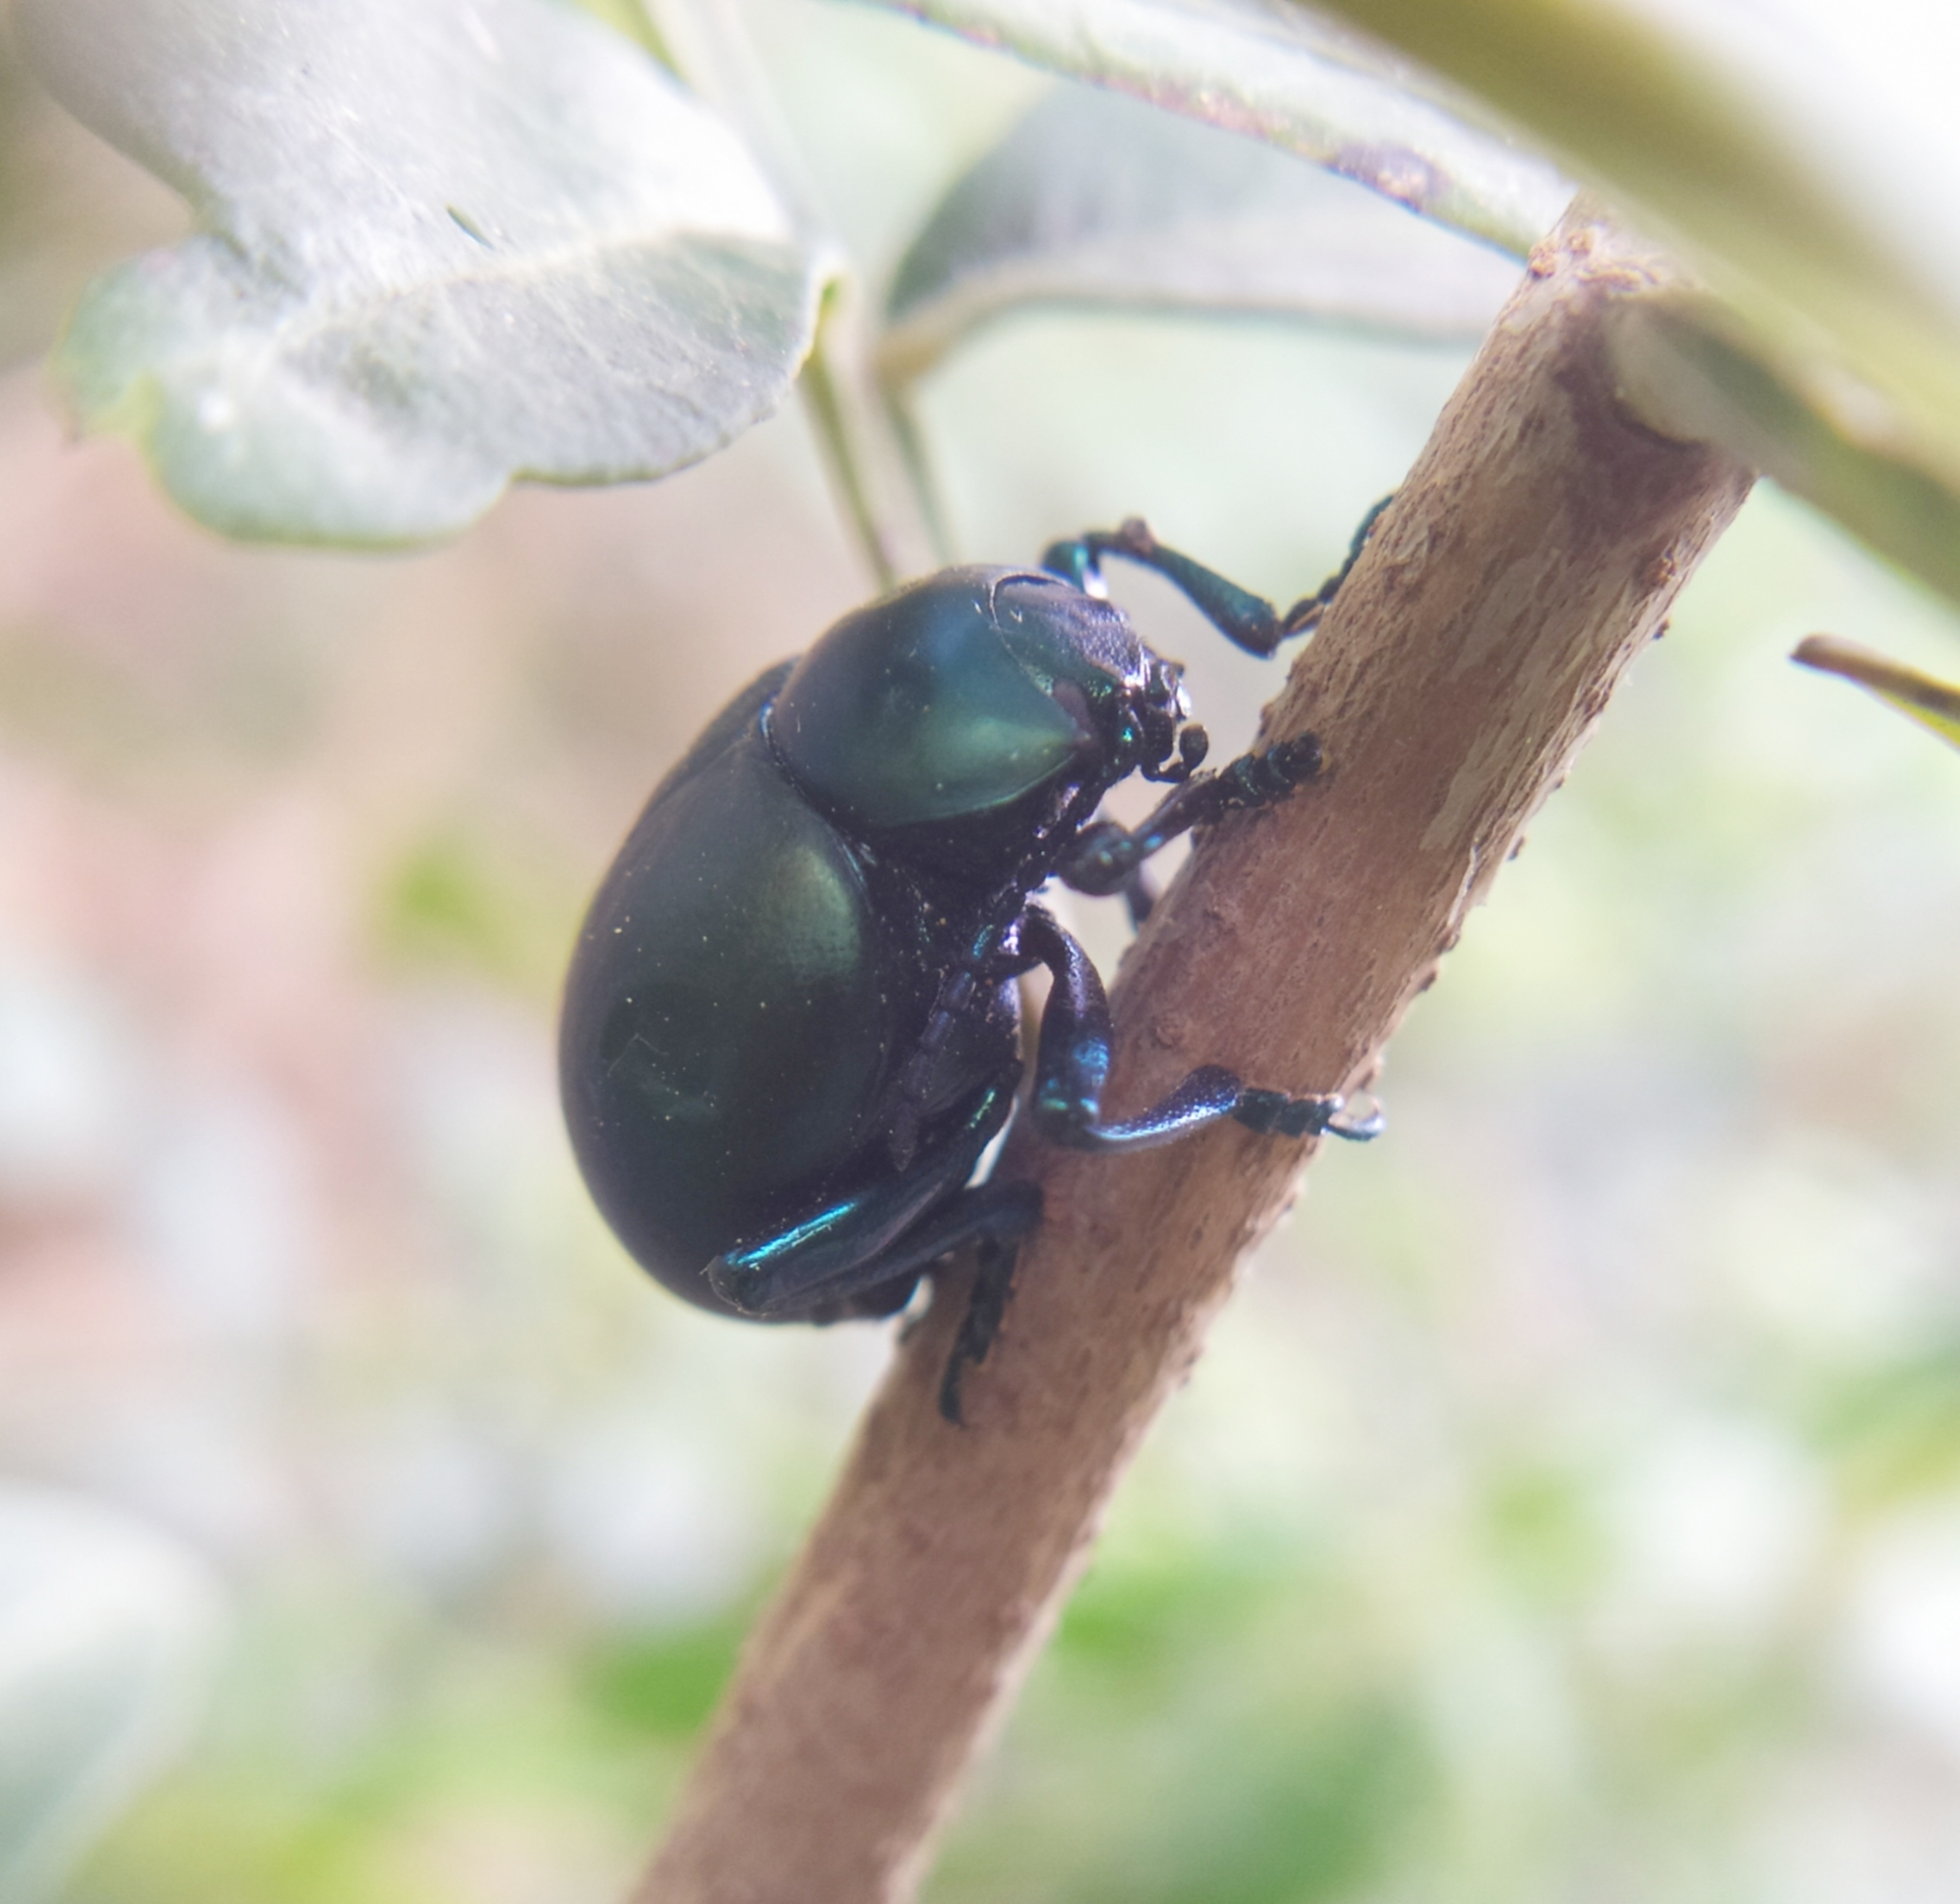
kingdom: Animalia
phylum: Arthropoda
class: Insecta
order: Coleoptera
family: Chrysomelidae
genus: Timarcha
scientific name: Timarcha balearica
